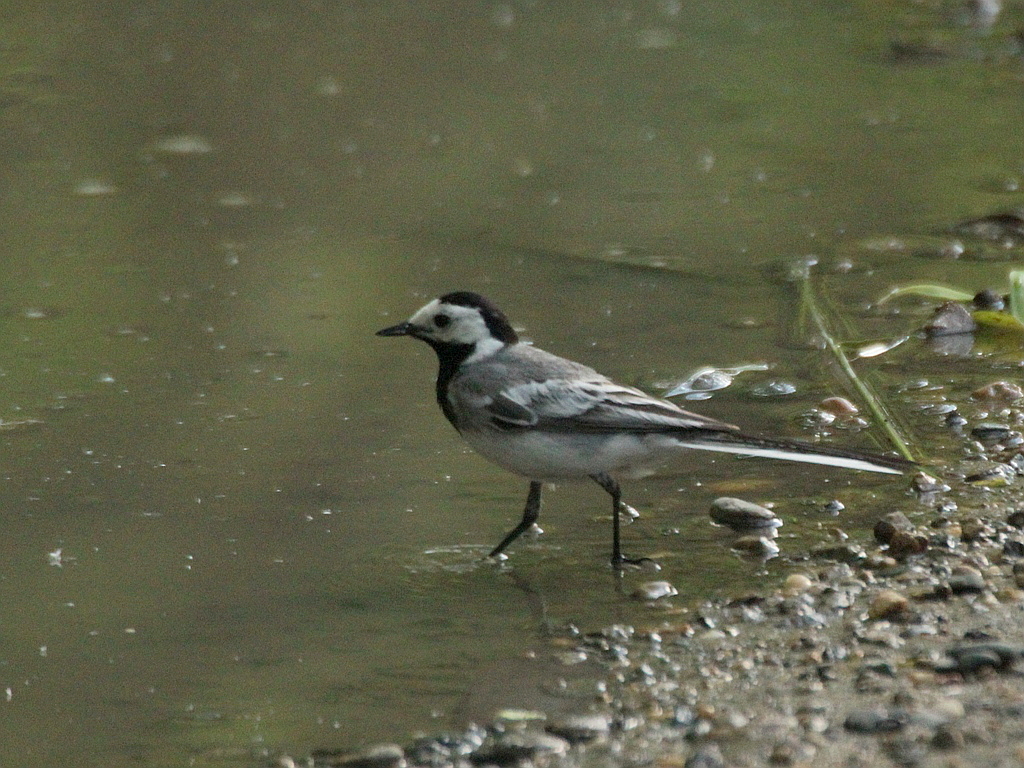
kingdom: Animalia
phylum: Chordata
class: Aves
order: Passeriformes
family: Motacillidae
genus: Motacilla
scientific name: Motacilla alba
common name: White wagtail
